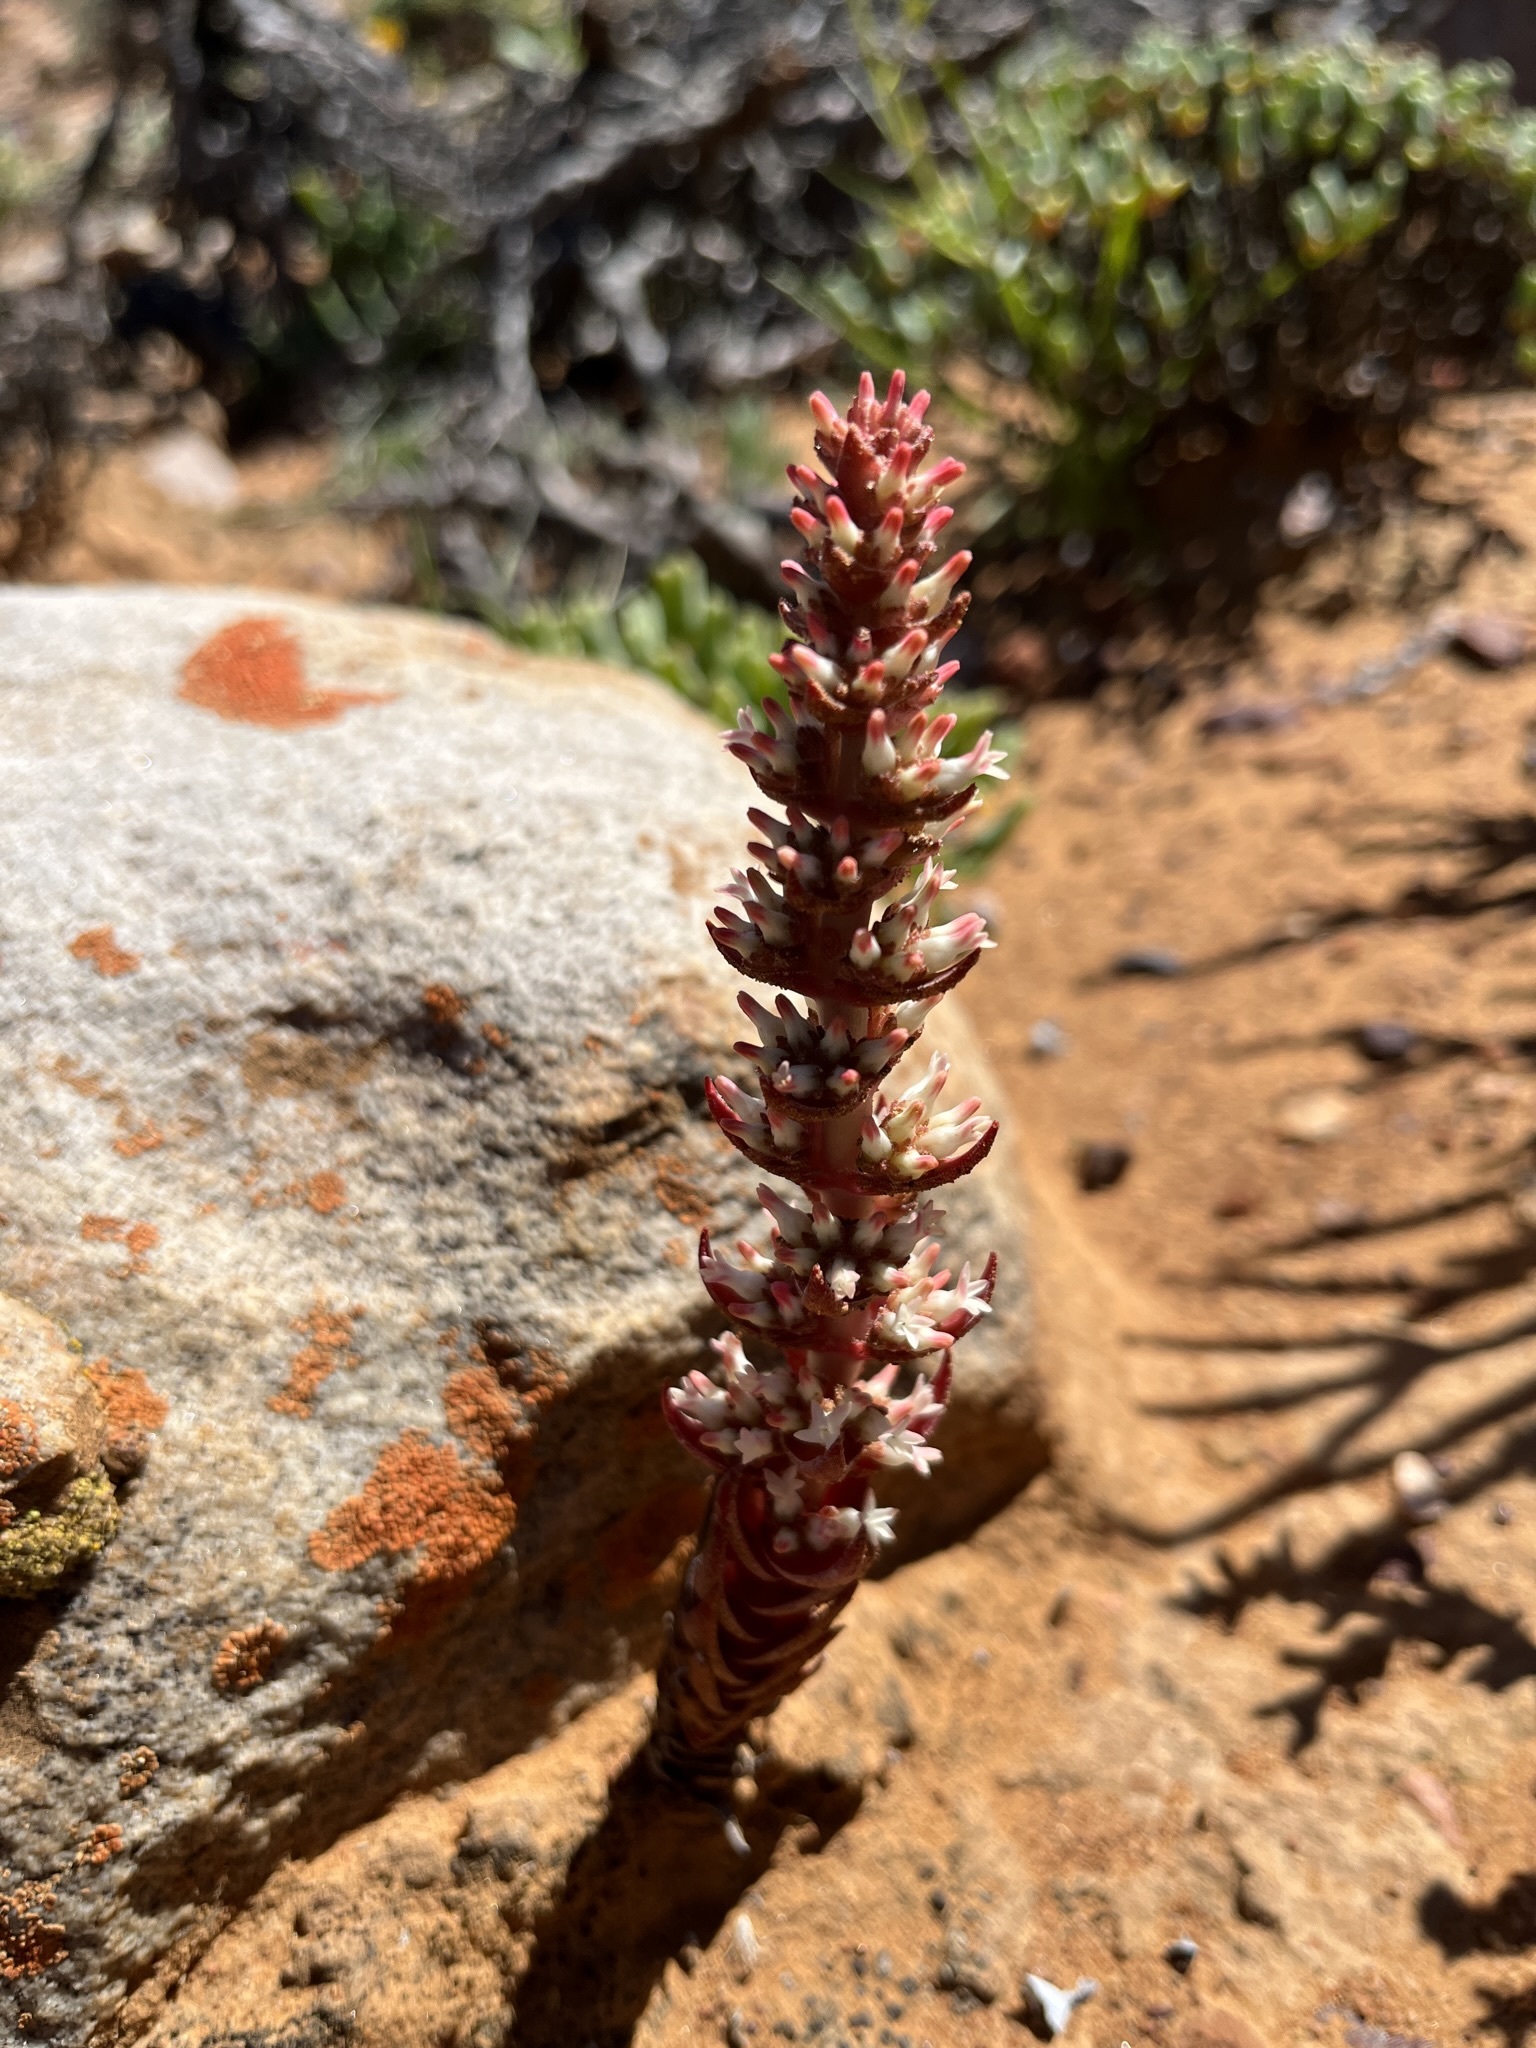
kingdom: Plantae
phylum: Tracheophyta
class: Magnoliopsida
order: Saxifragales
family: Crassulaceae
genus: Crassula
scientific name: Crassula alpestris
